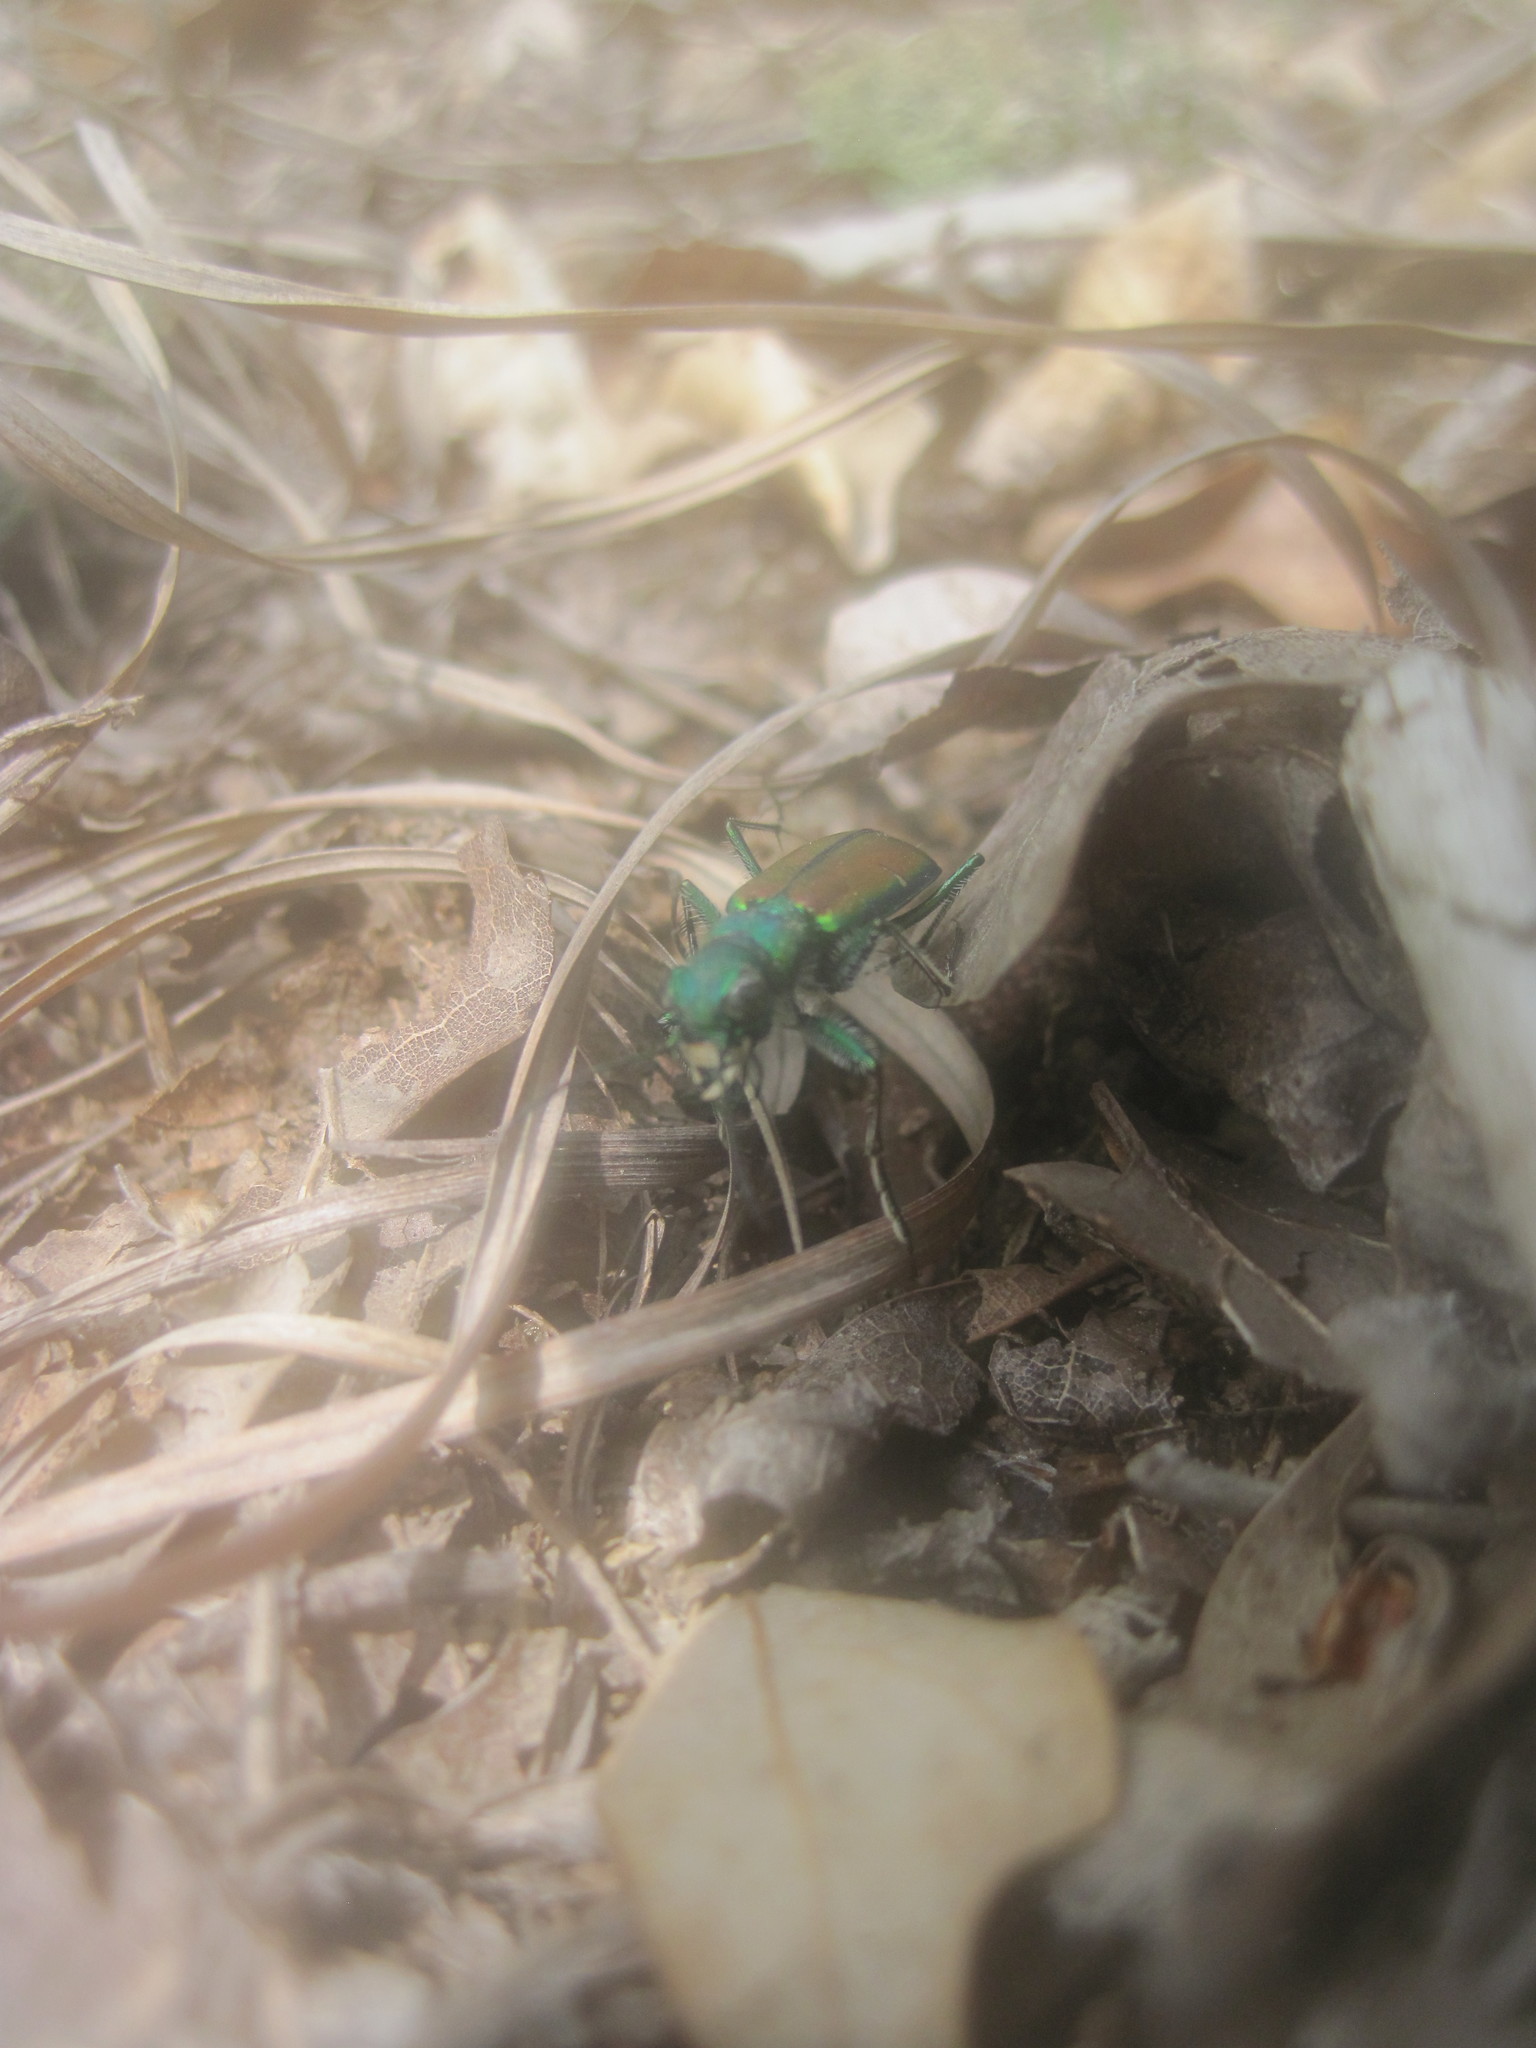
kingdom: Animalia
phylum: Arthropoda
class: Insecta
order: Coleoptera
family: Carabidae
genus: Cicindela
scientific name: Cicindela splendida
